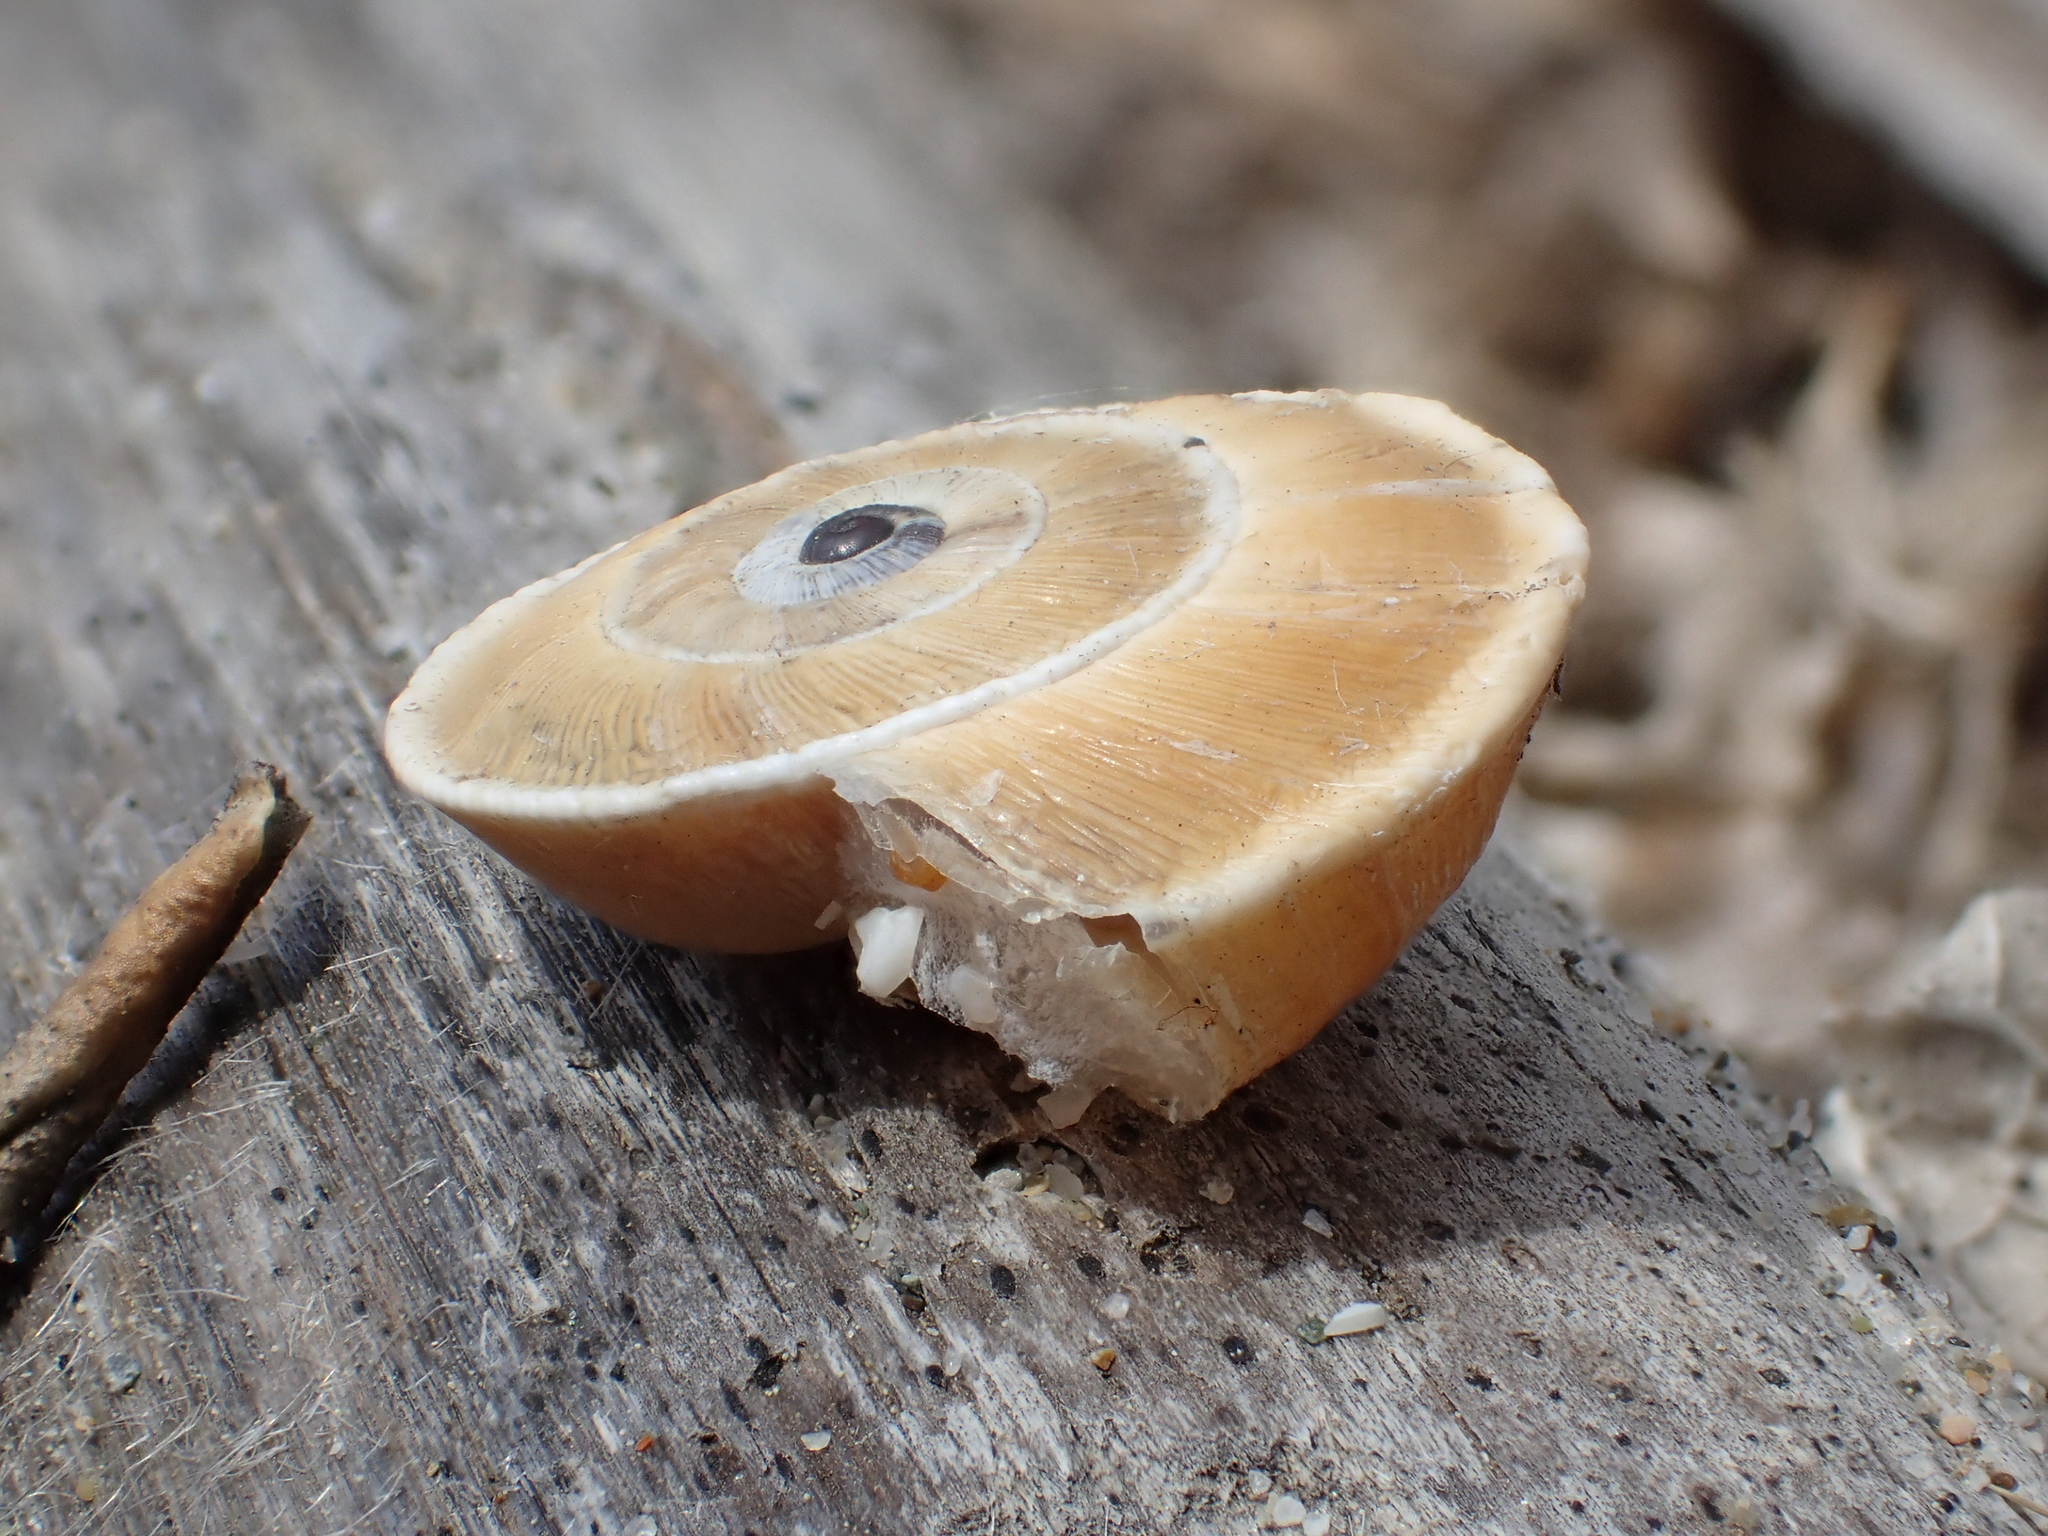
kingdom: Animalia
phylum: Mollusca
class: Gastropoda
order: Stylommatophora
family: Geomitridae
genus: Xerosecta
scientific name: Xerosecta explanata
